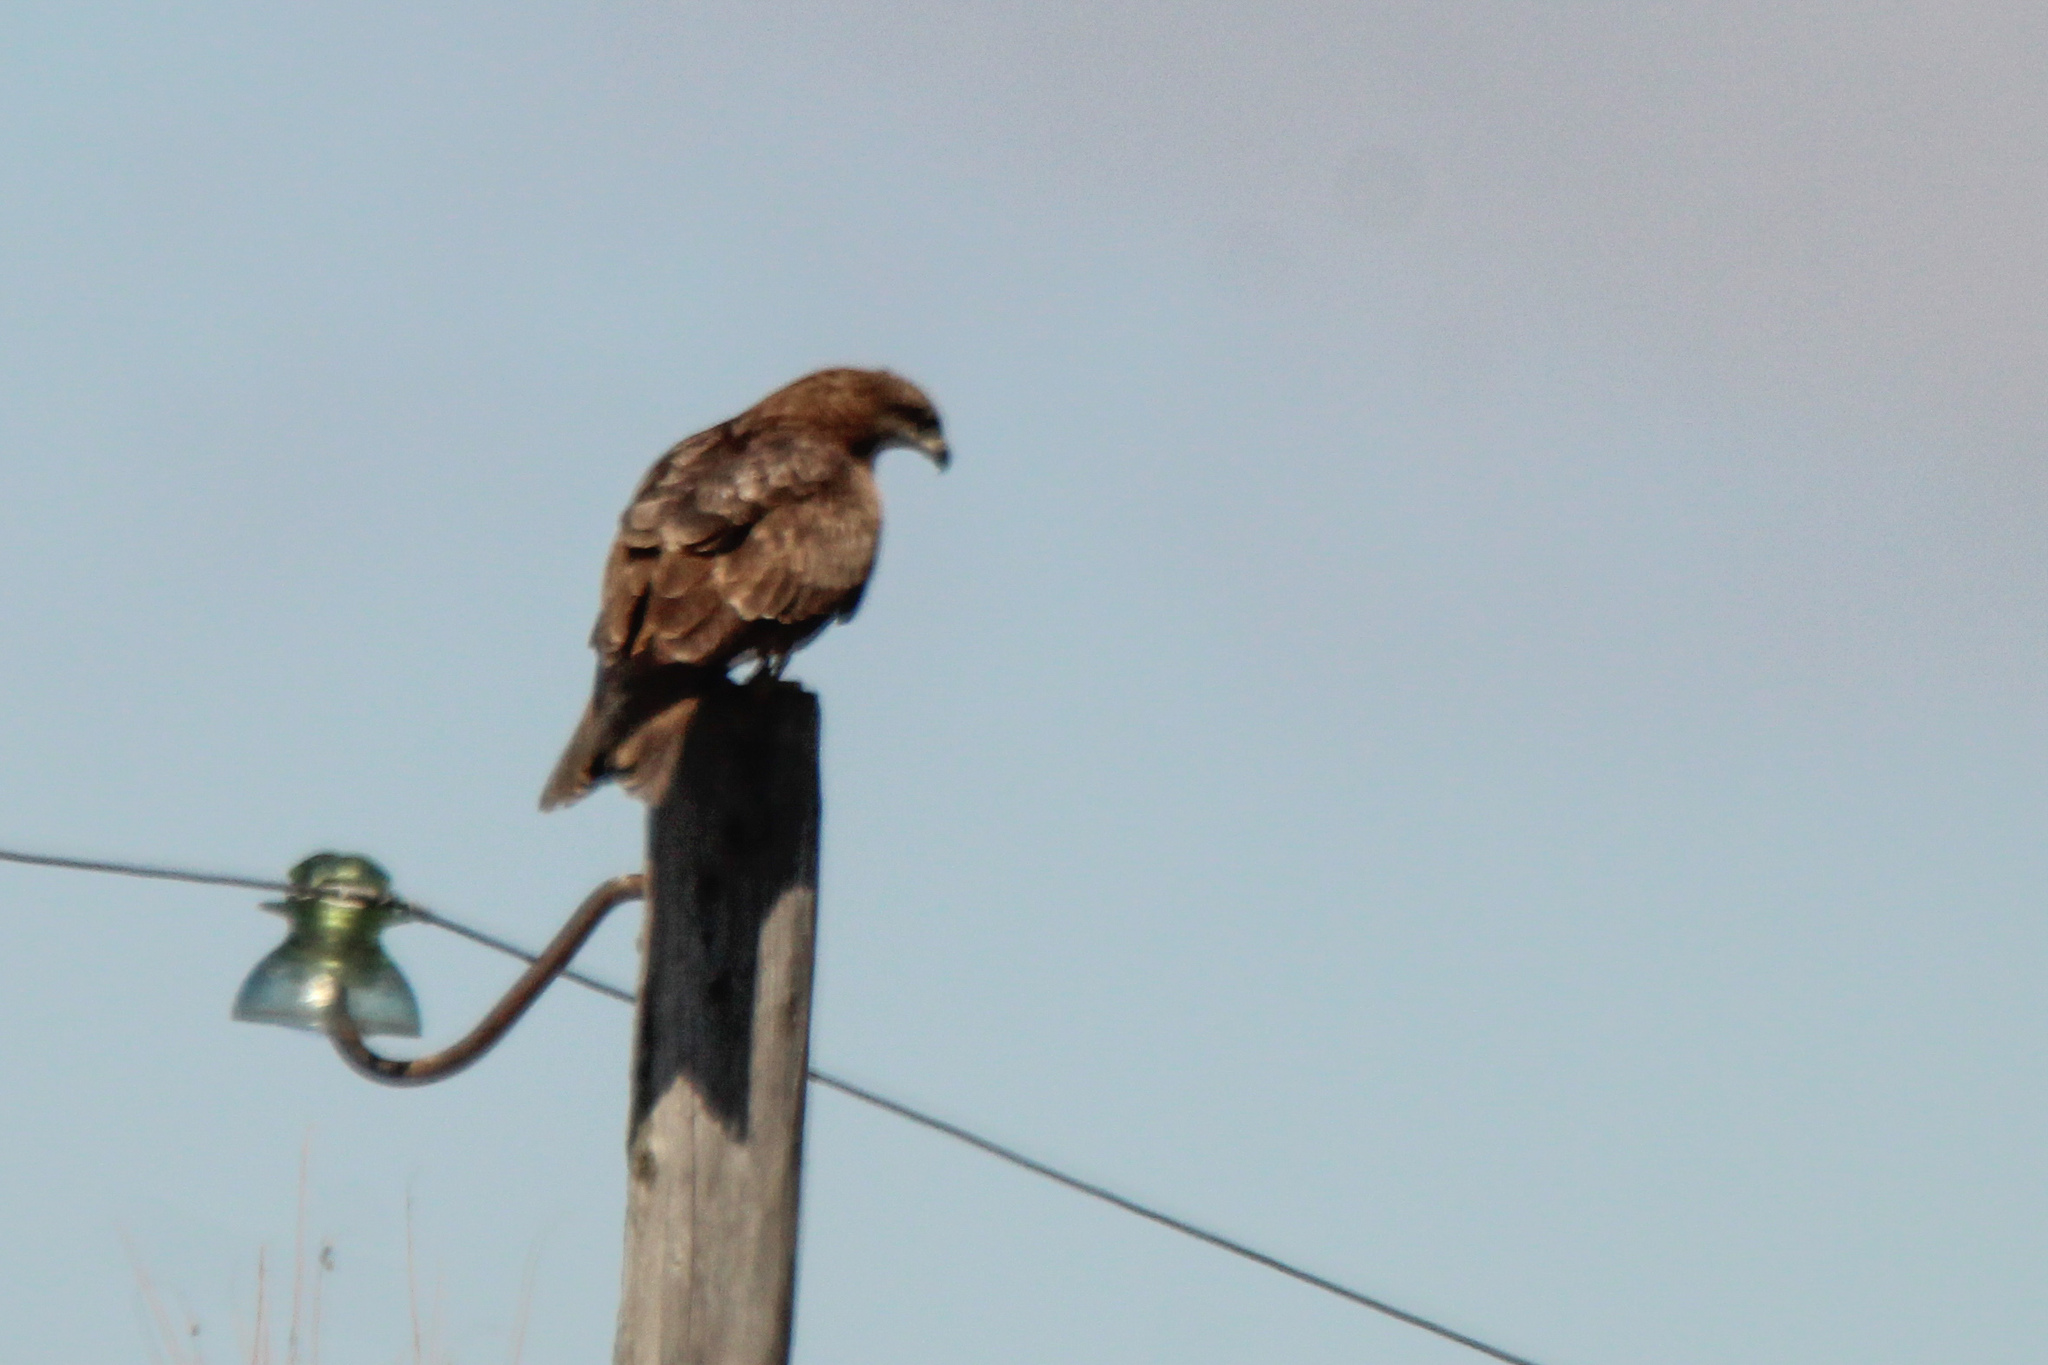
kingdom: Animalia
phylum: Chordata
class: Aves
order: Accipitriformes
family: Accipitridae
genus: Milvus
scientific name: Milvus migrans
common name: Black kite
